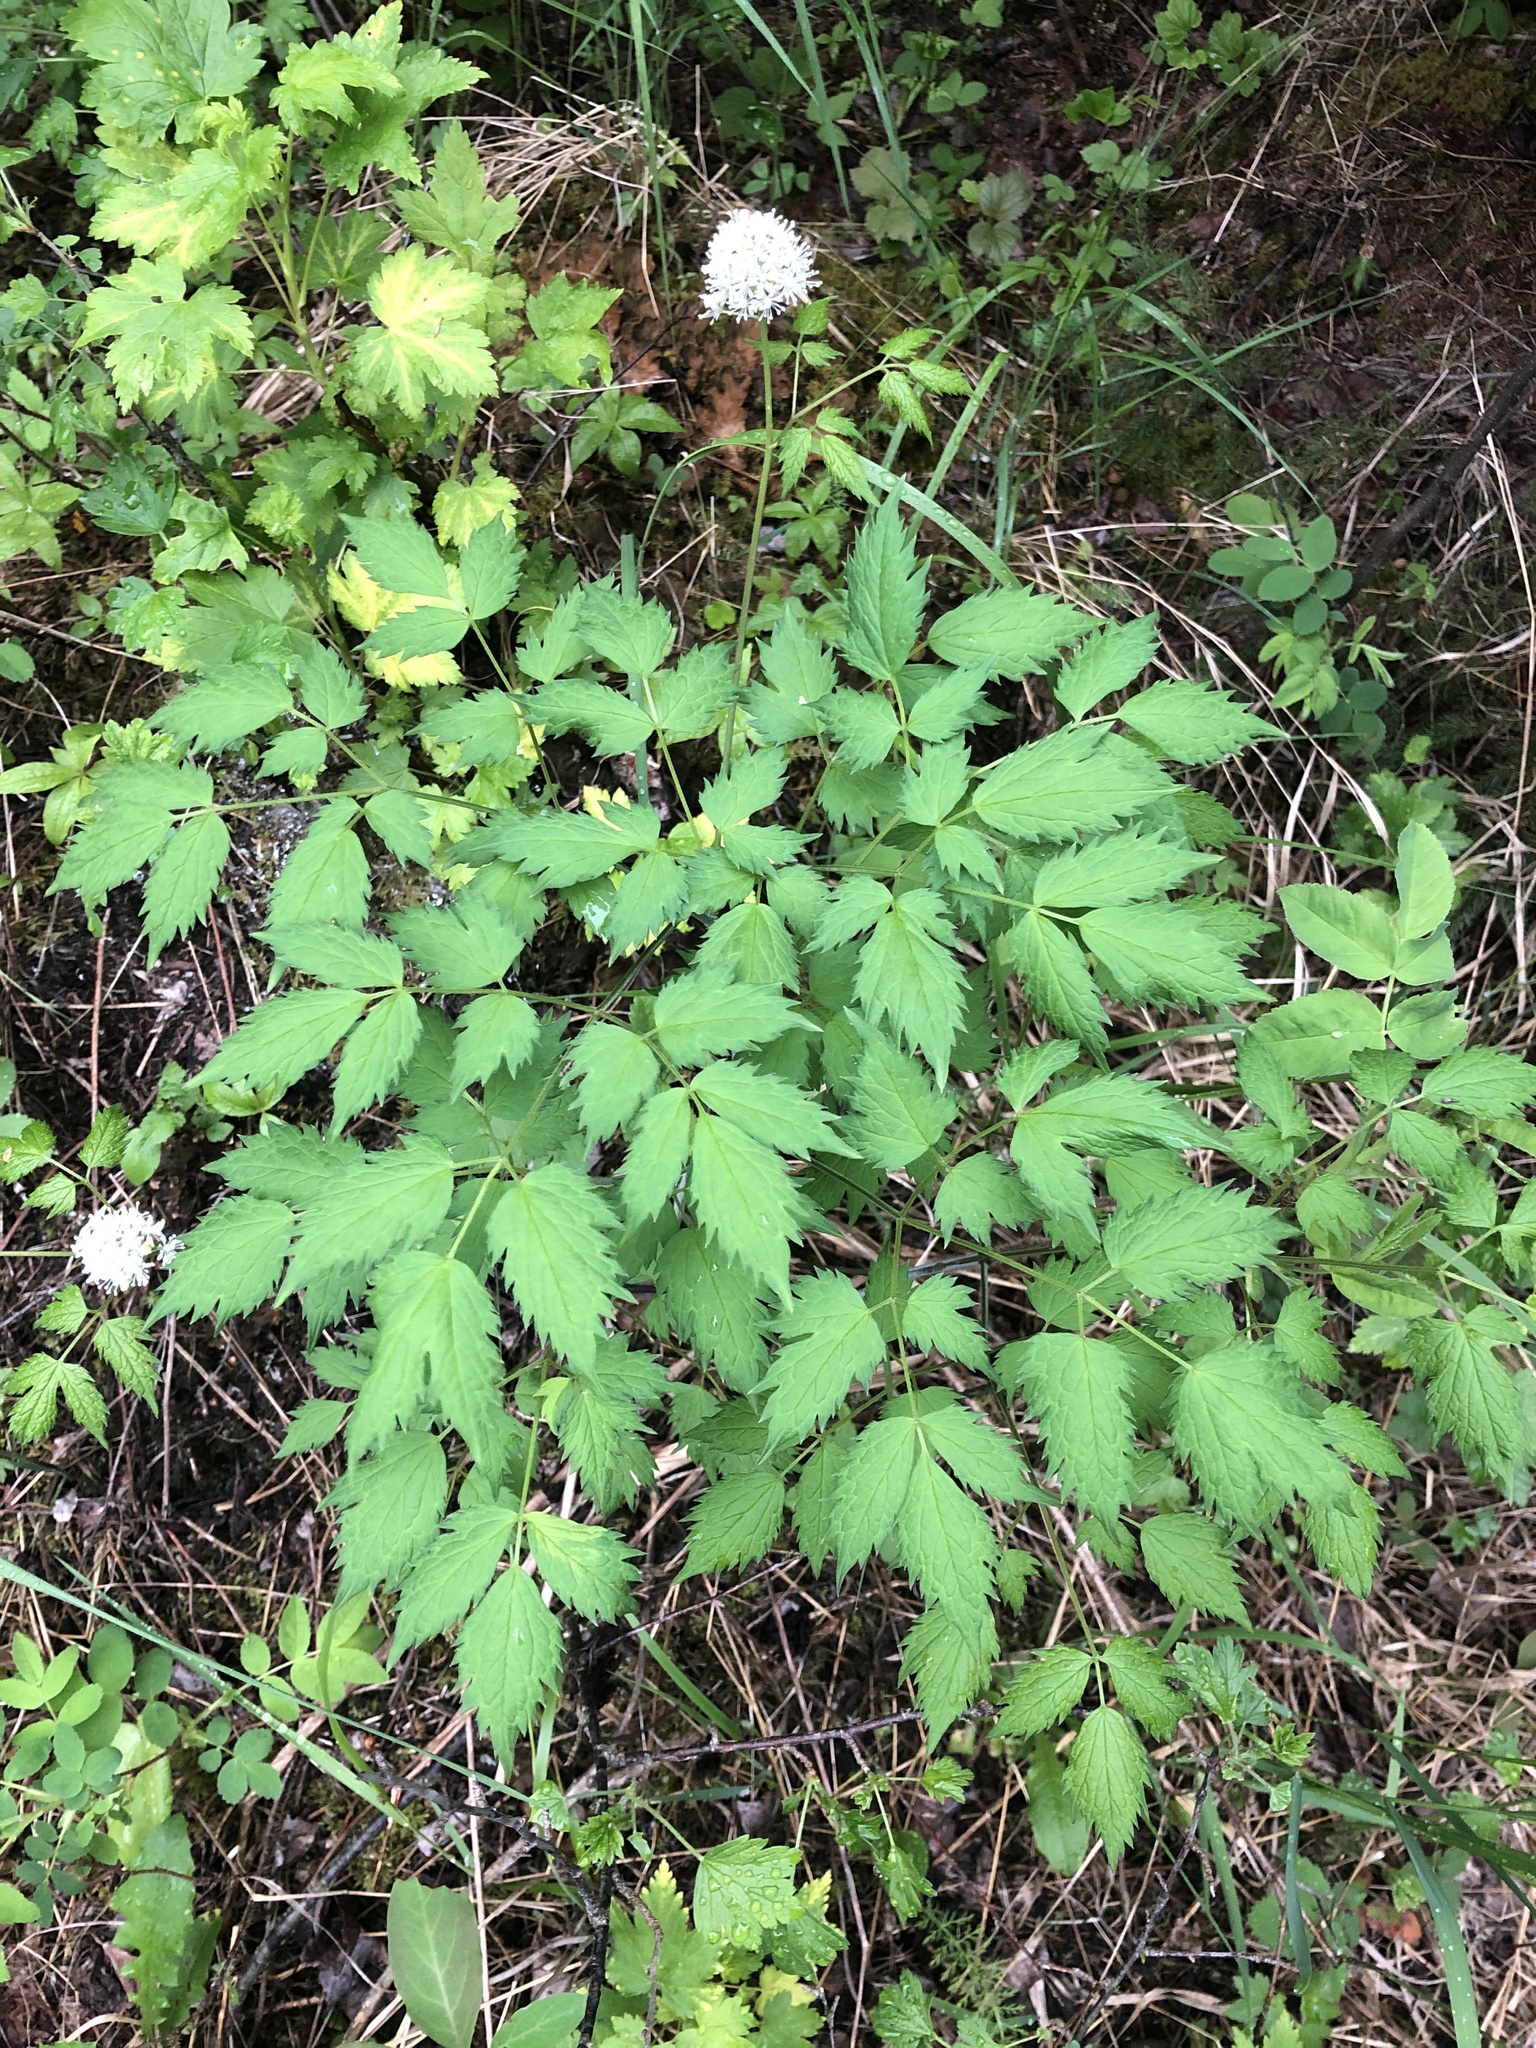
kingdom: Plantae
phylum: Tracheophyta
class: Magnoliopsida
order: Ranunculales
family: Ranunculaceae
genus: Actaea
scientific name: Actaea rubra
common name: Red baneberry
